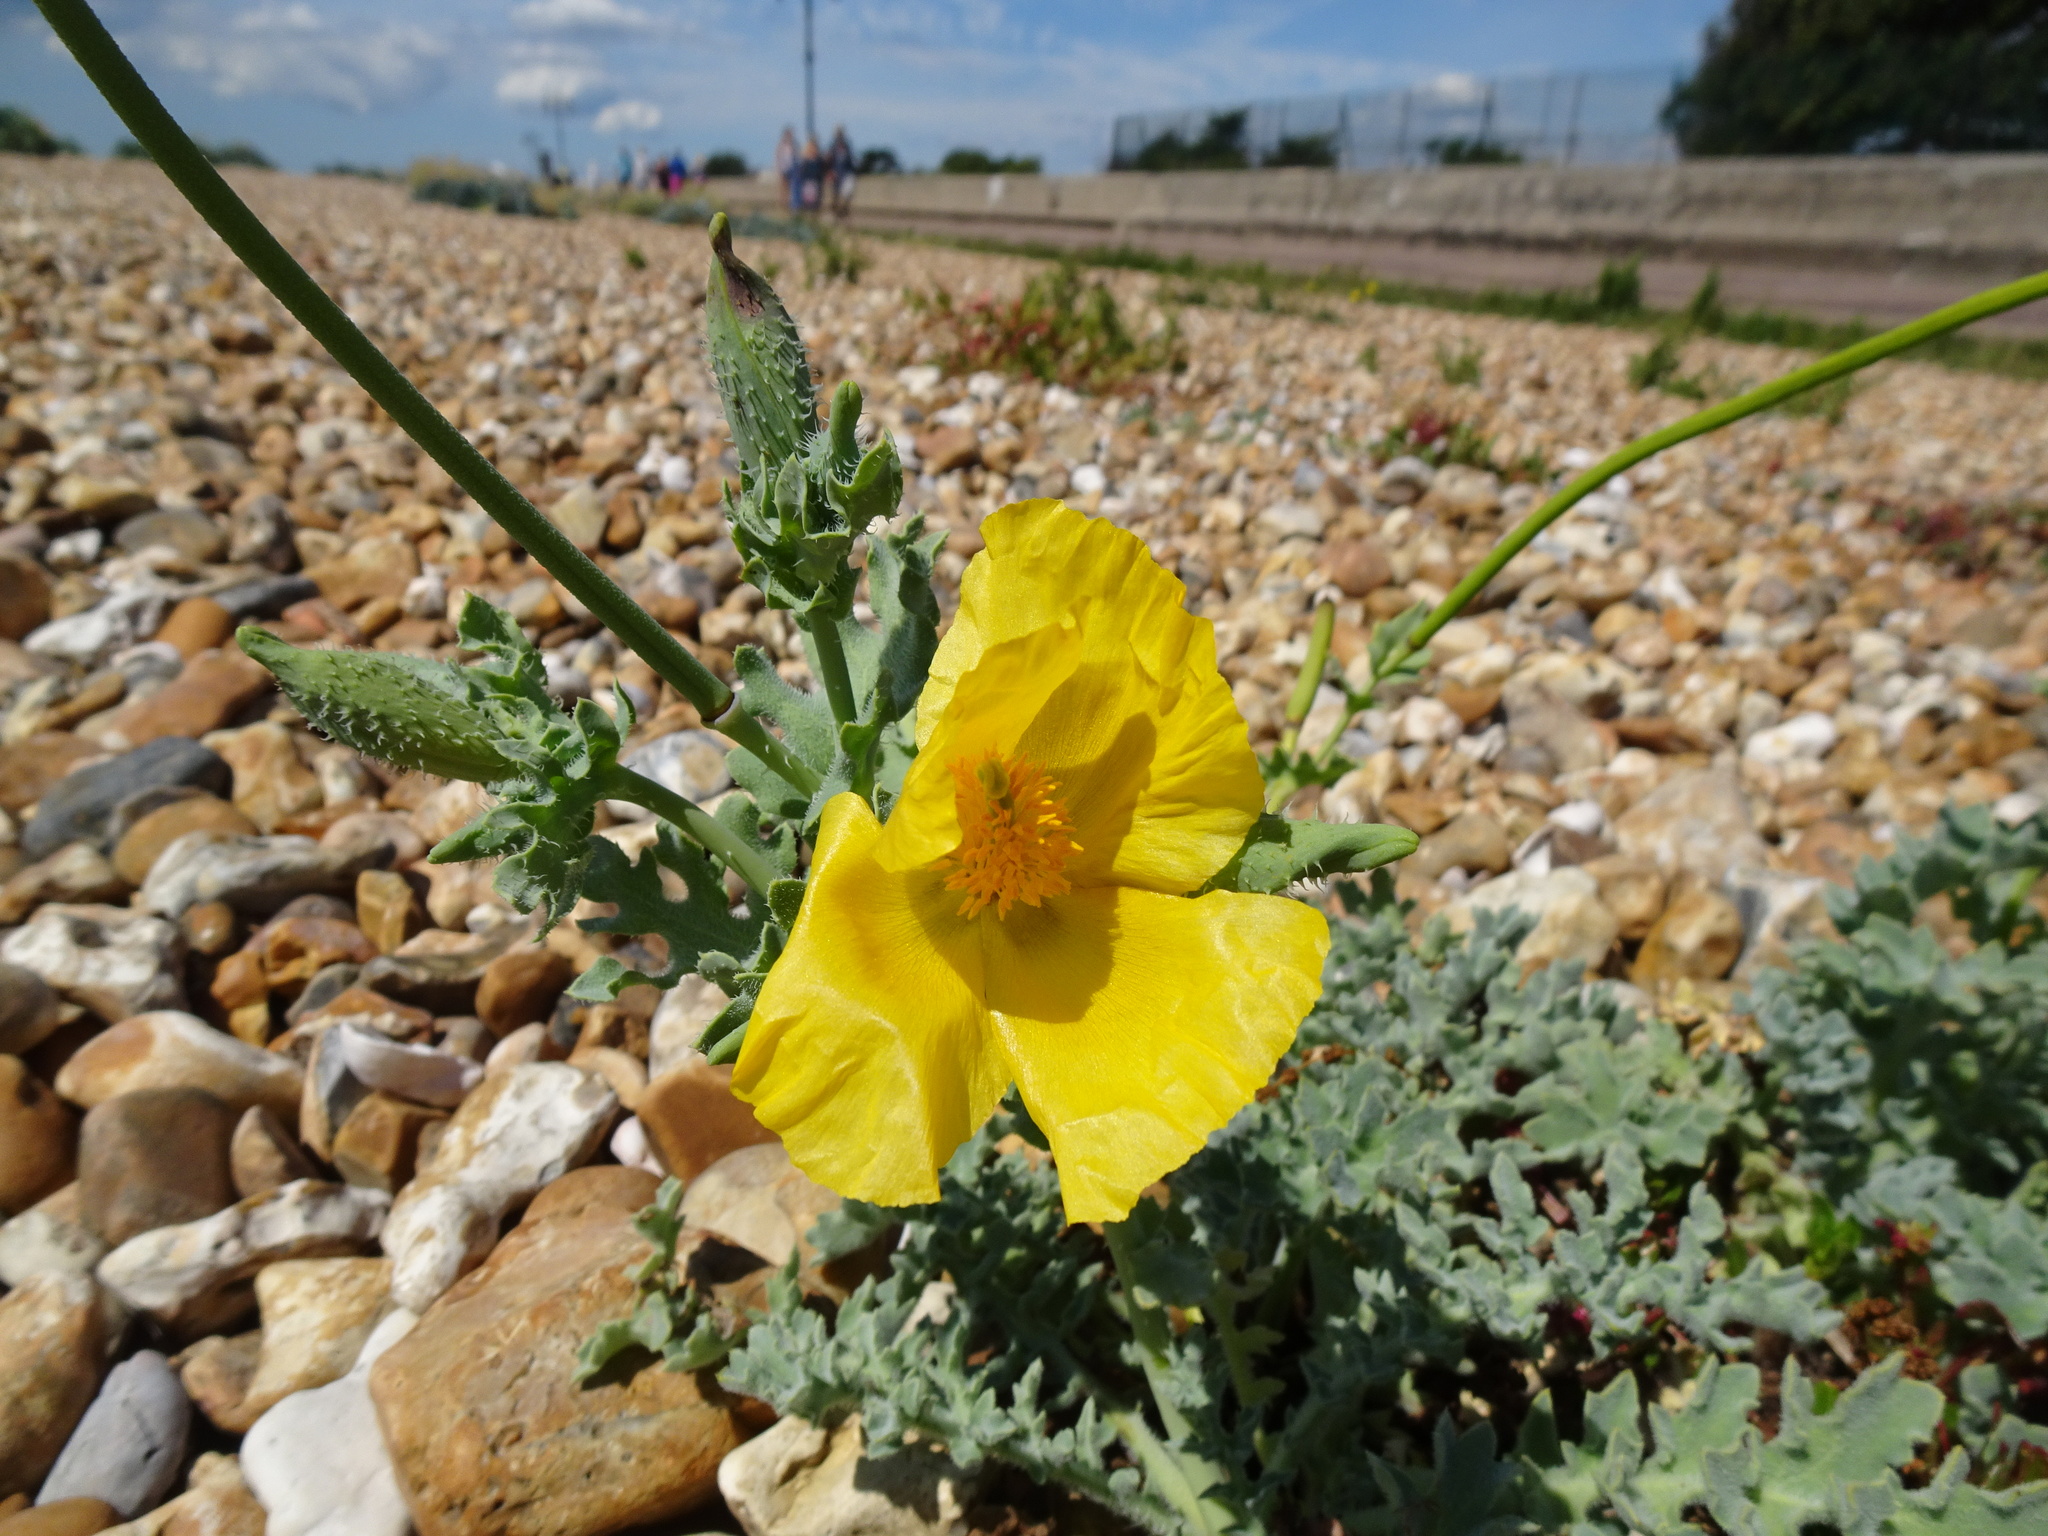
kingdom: Plantae
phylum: Tracheophyta
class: Magnoliopsida
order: Ranunculales
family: Papaveraceae
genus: Glaucium
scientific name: Glaucium flavum
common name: Yellow horned-poppy
